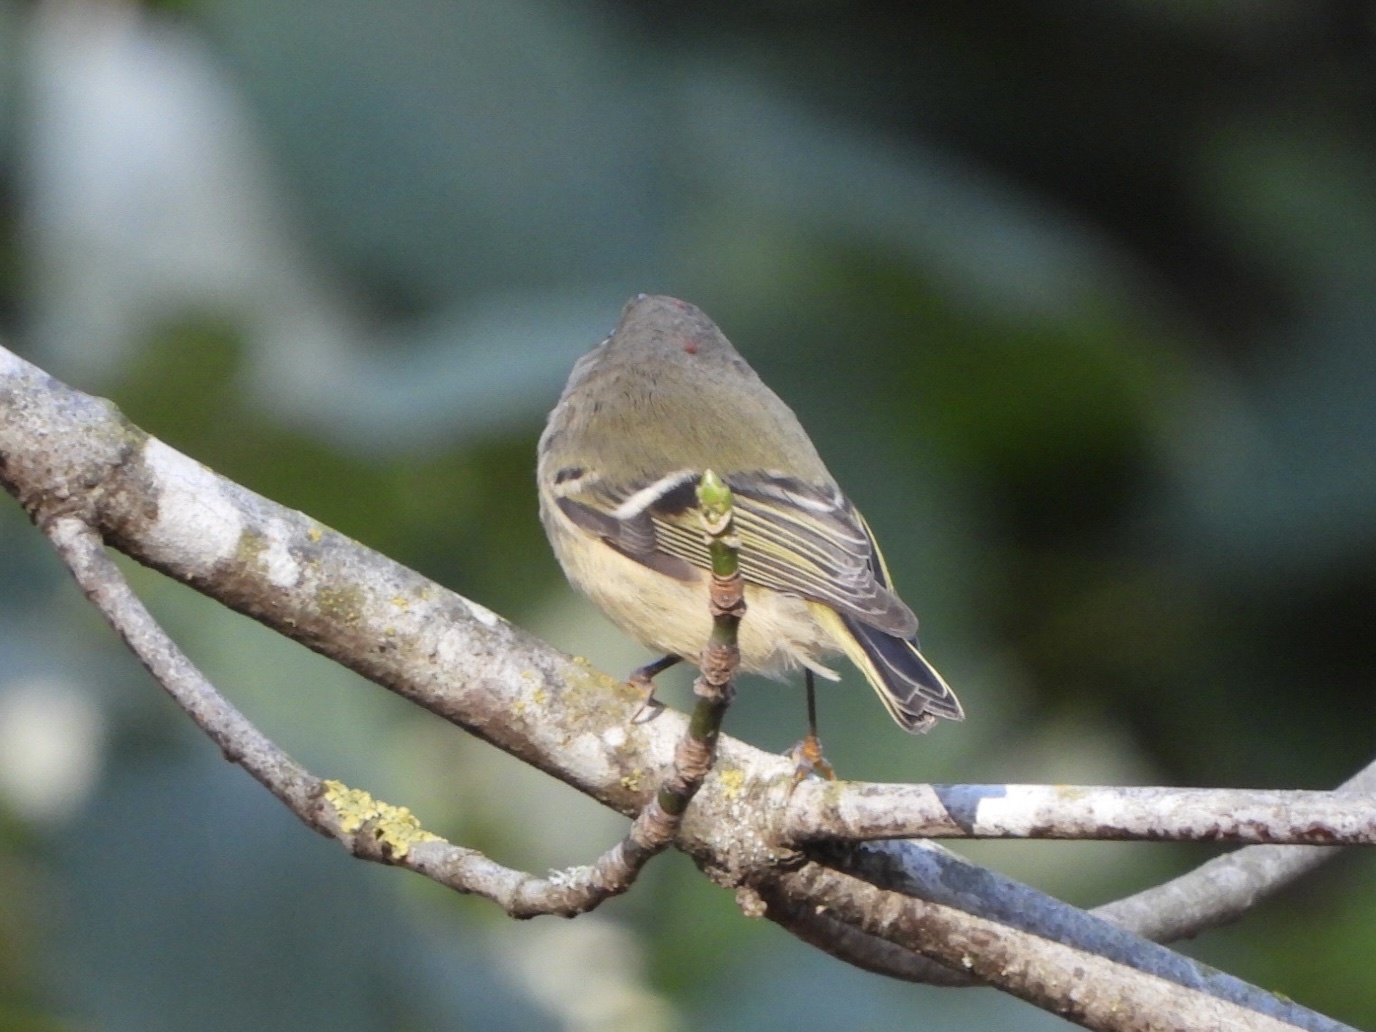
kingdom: Animalia
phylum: Chordata
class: Aves
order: Passeriformes
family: Regulidae
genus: Regulus
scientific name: Regulus calendula
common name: Ruby-crowned kinglet
